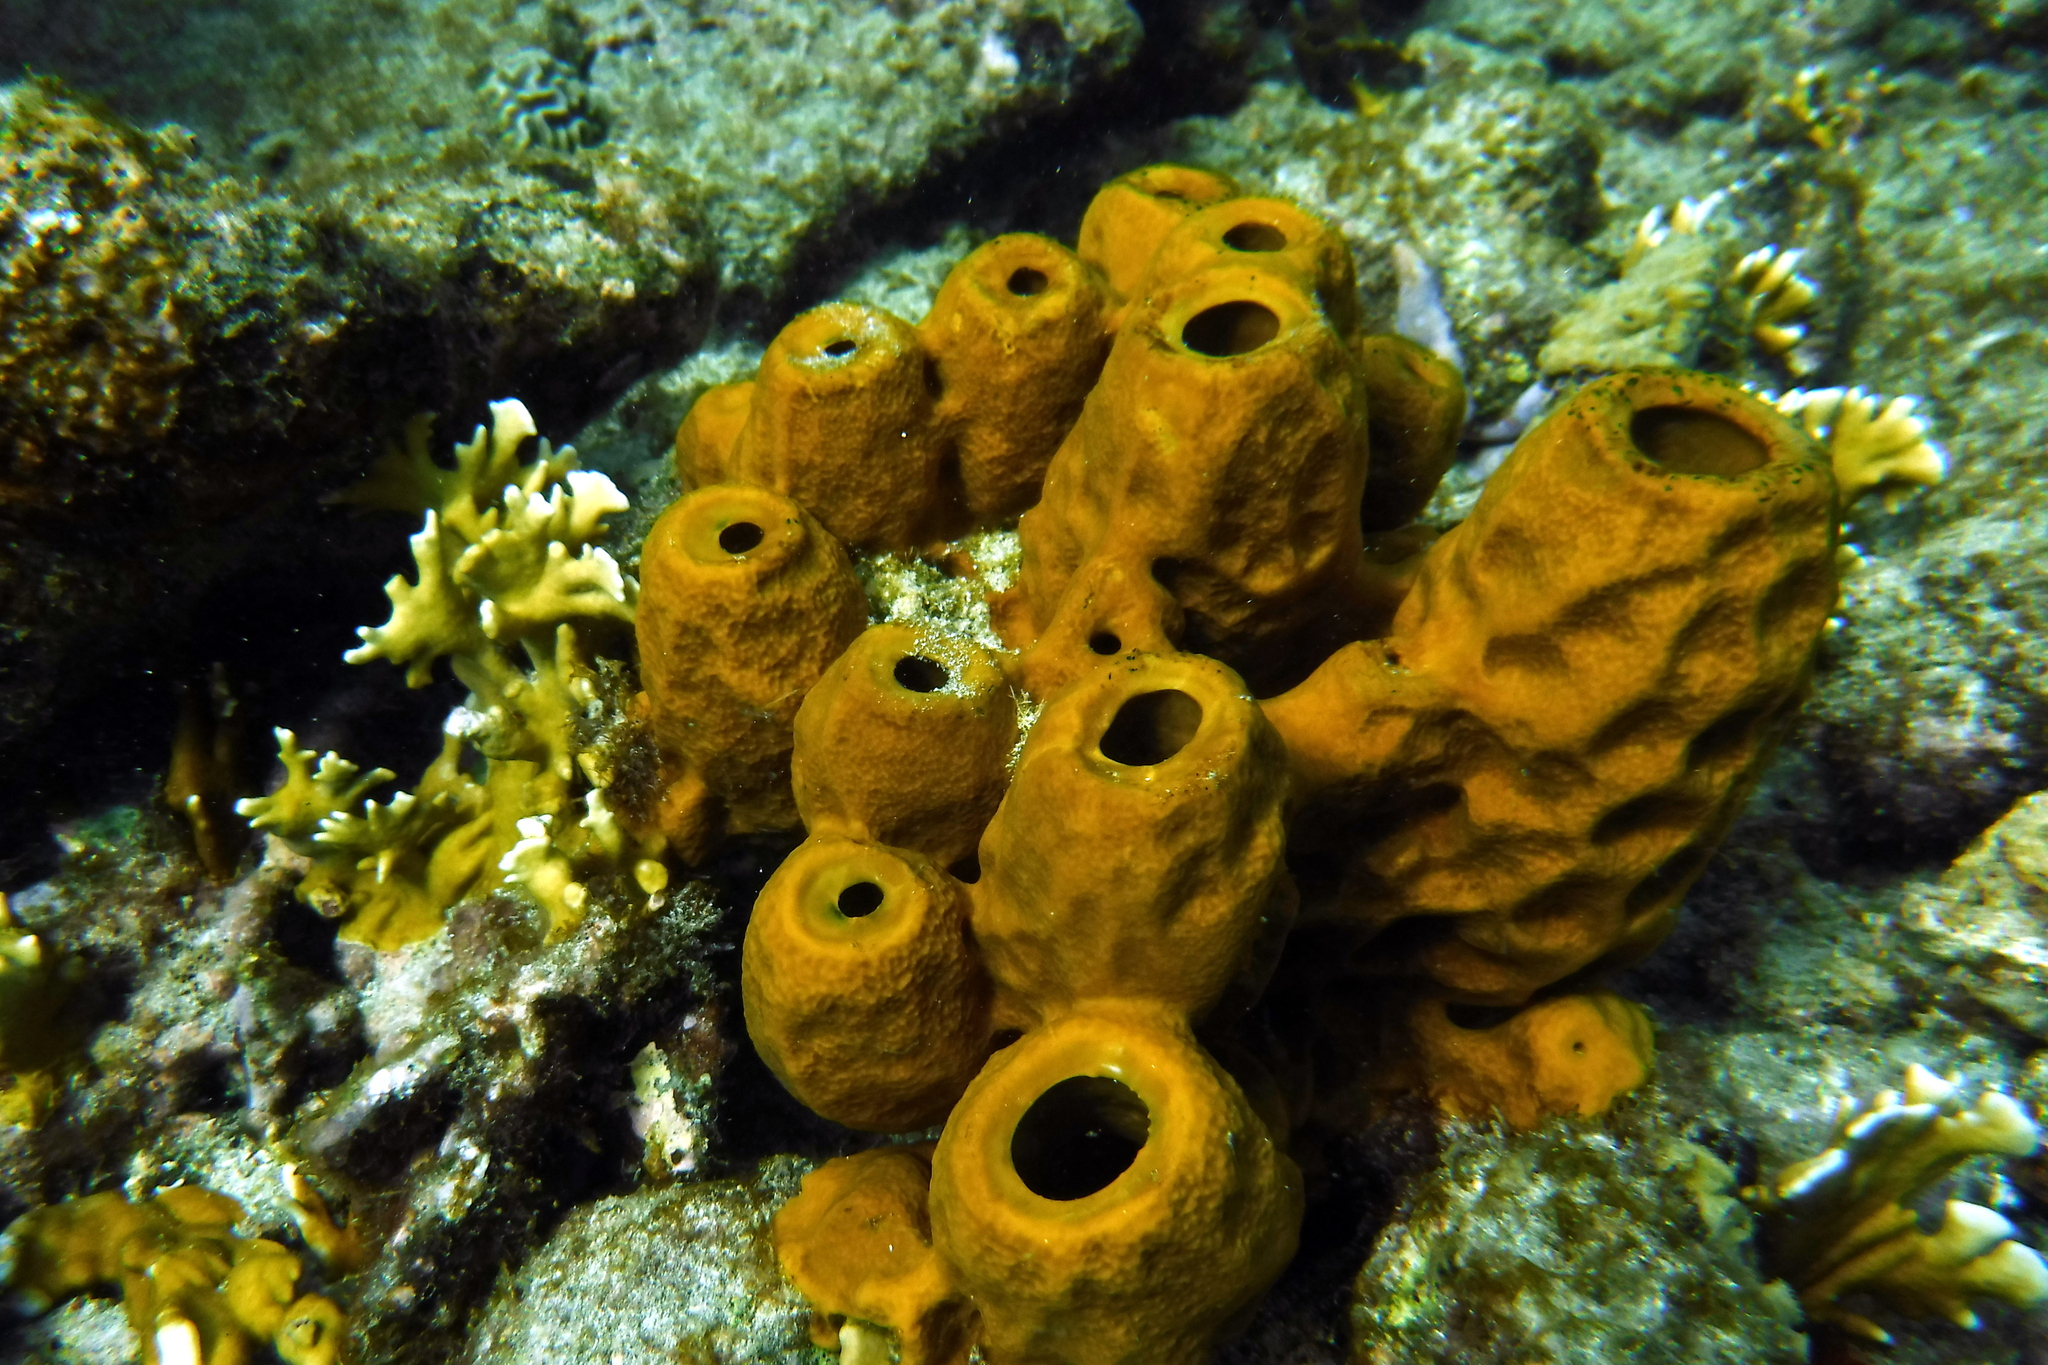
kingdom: Animalia
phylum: Porifera
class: Demospongiae
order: Verongiida
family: Aplysinidae
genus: Aplysina
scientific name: Aplysina fistularis
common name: Candle sponge
